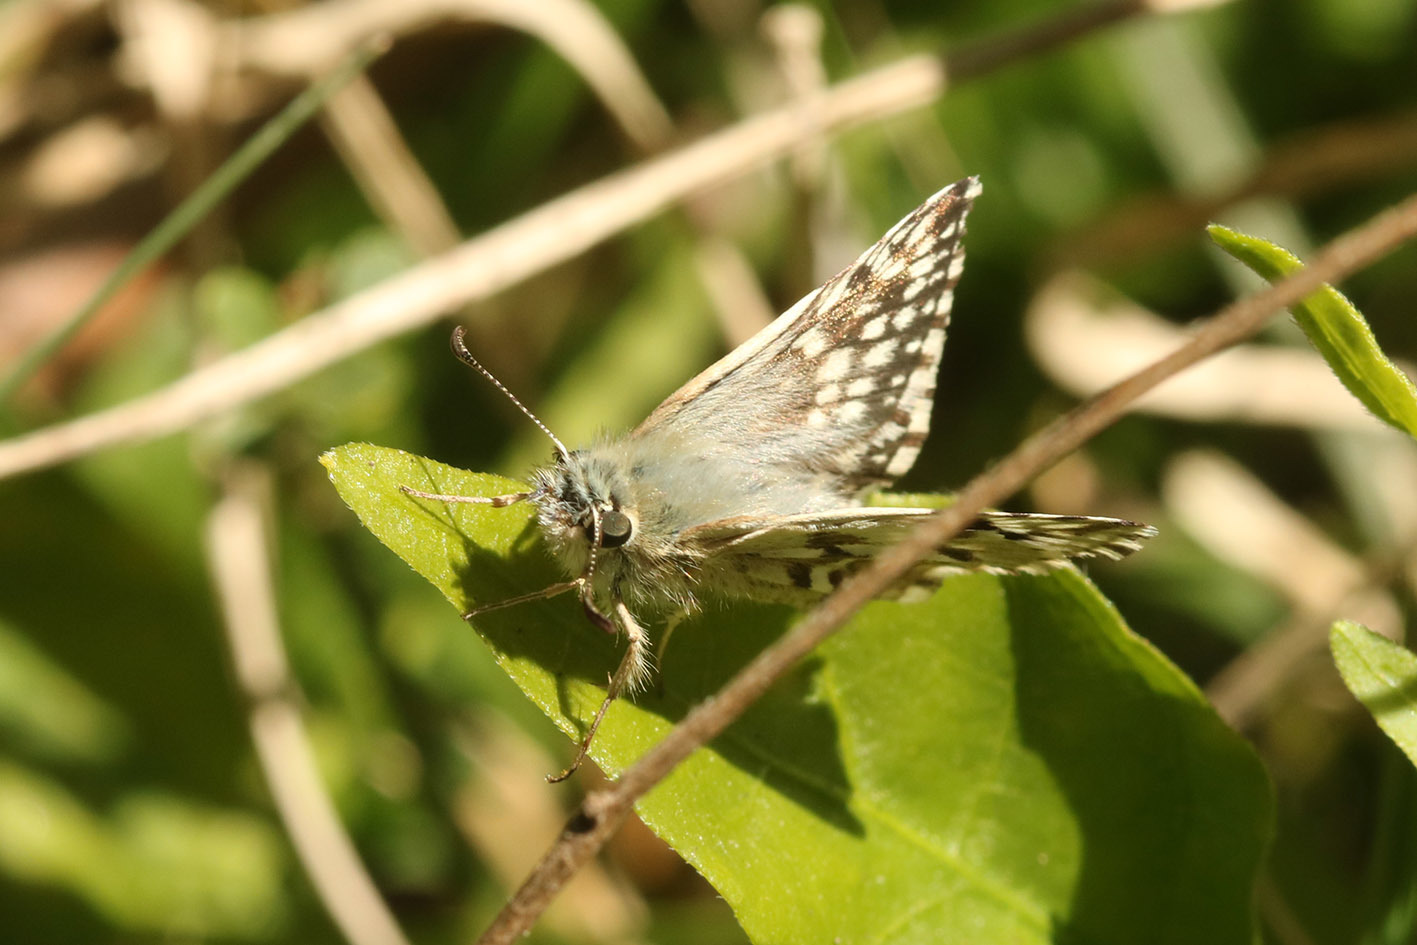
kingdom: Animalia
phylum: Arthropoda
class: Insecta
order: Lepidoptera
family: Hesperiidae
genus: Heliopetes
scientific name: Heliopetes americanus
